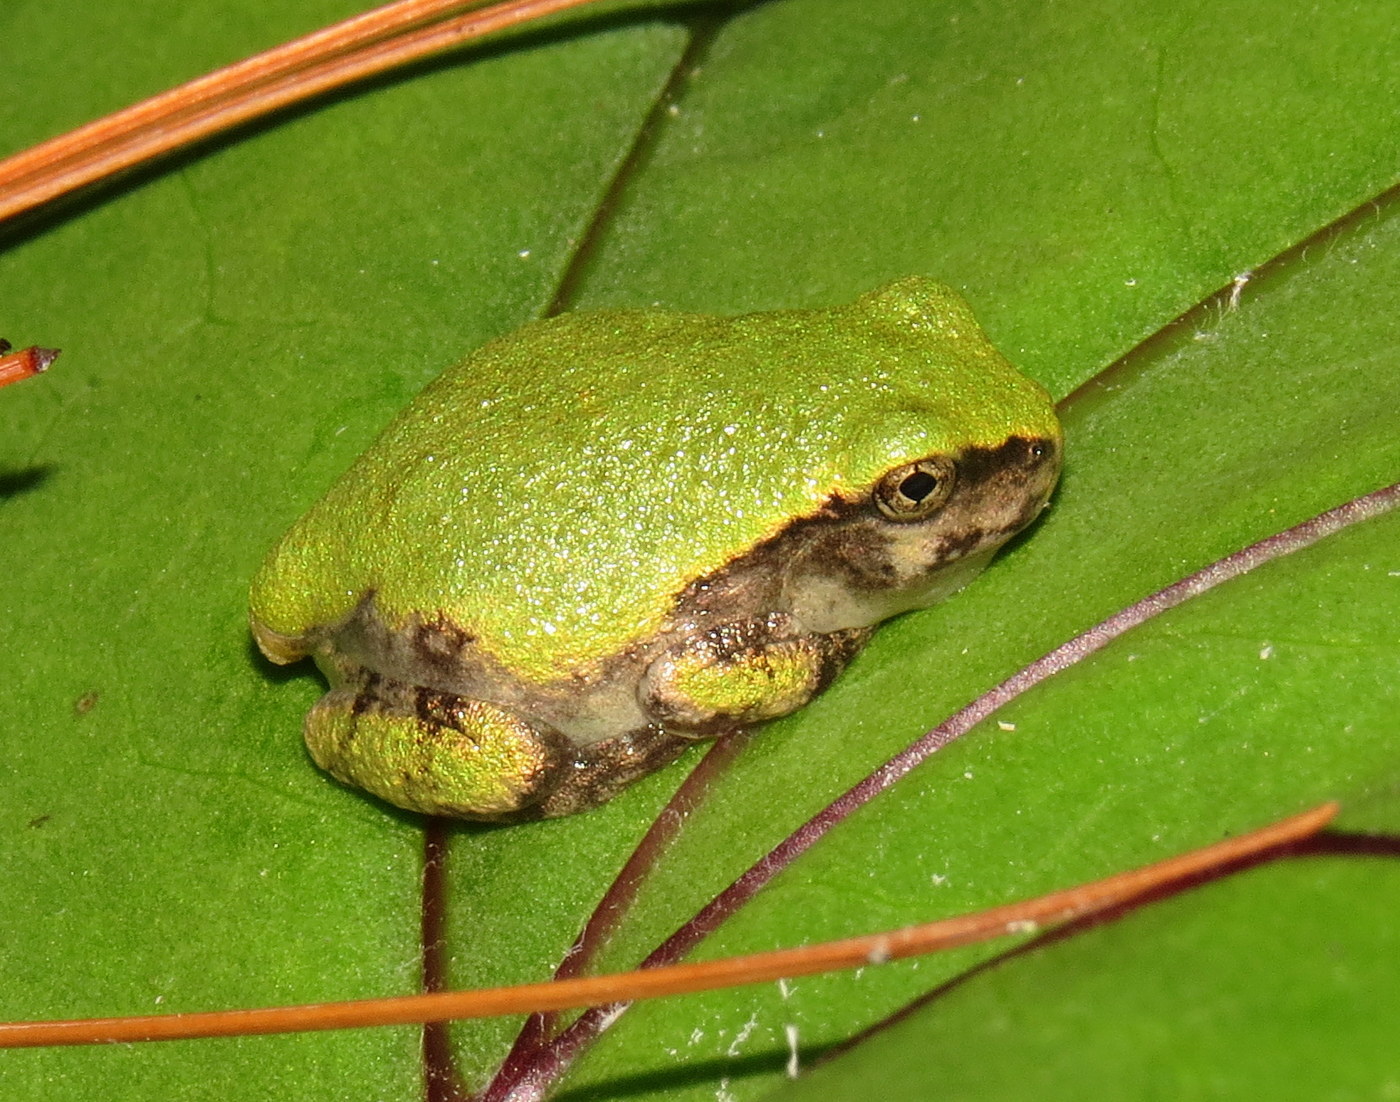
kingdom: Animalia
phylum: Chordata
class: Amphibia
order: Anura
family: Hylidae
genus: Dryophytes
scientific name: Dryophytes versicolor
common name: Gray treefrog
